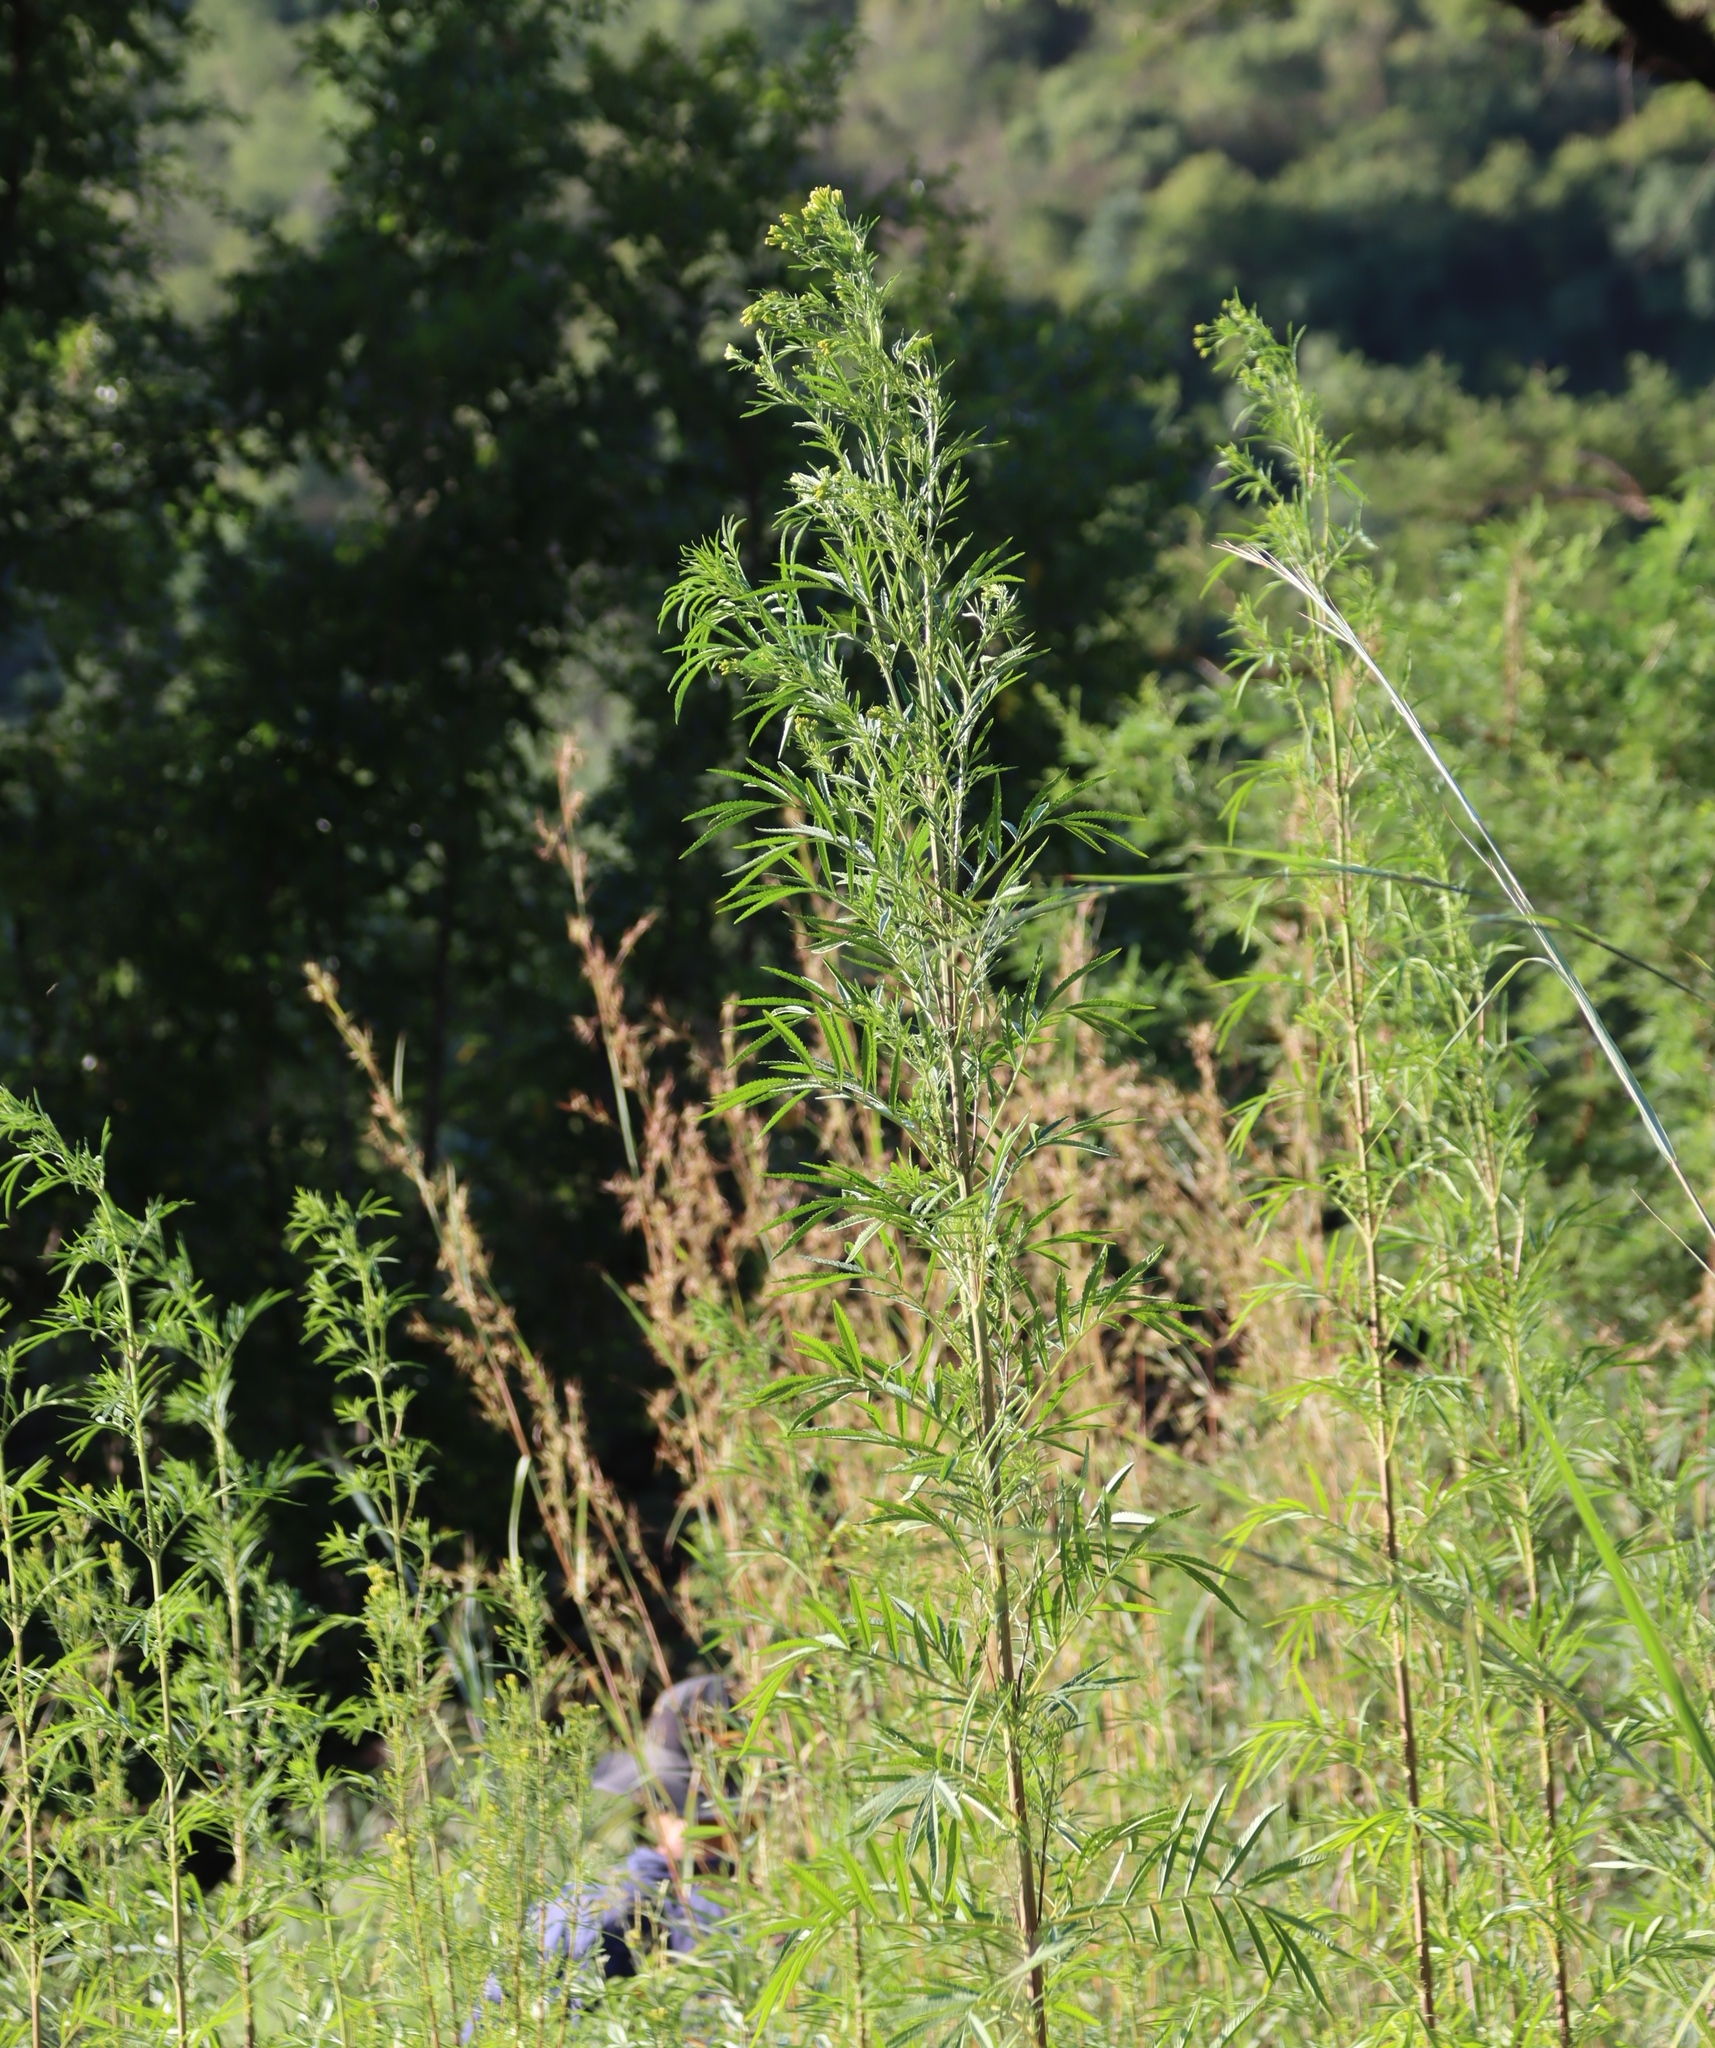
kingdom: Plantae
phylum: Tracheophyta
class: Magnoliopsida
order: Asterales
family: Asteraceae
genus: Tagetes
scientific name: Tagetes minuta
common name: Muster john henry
